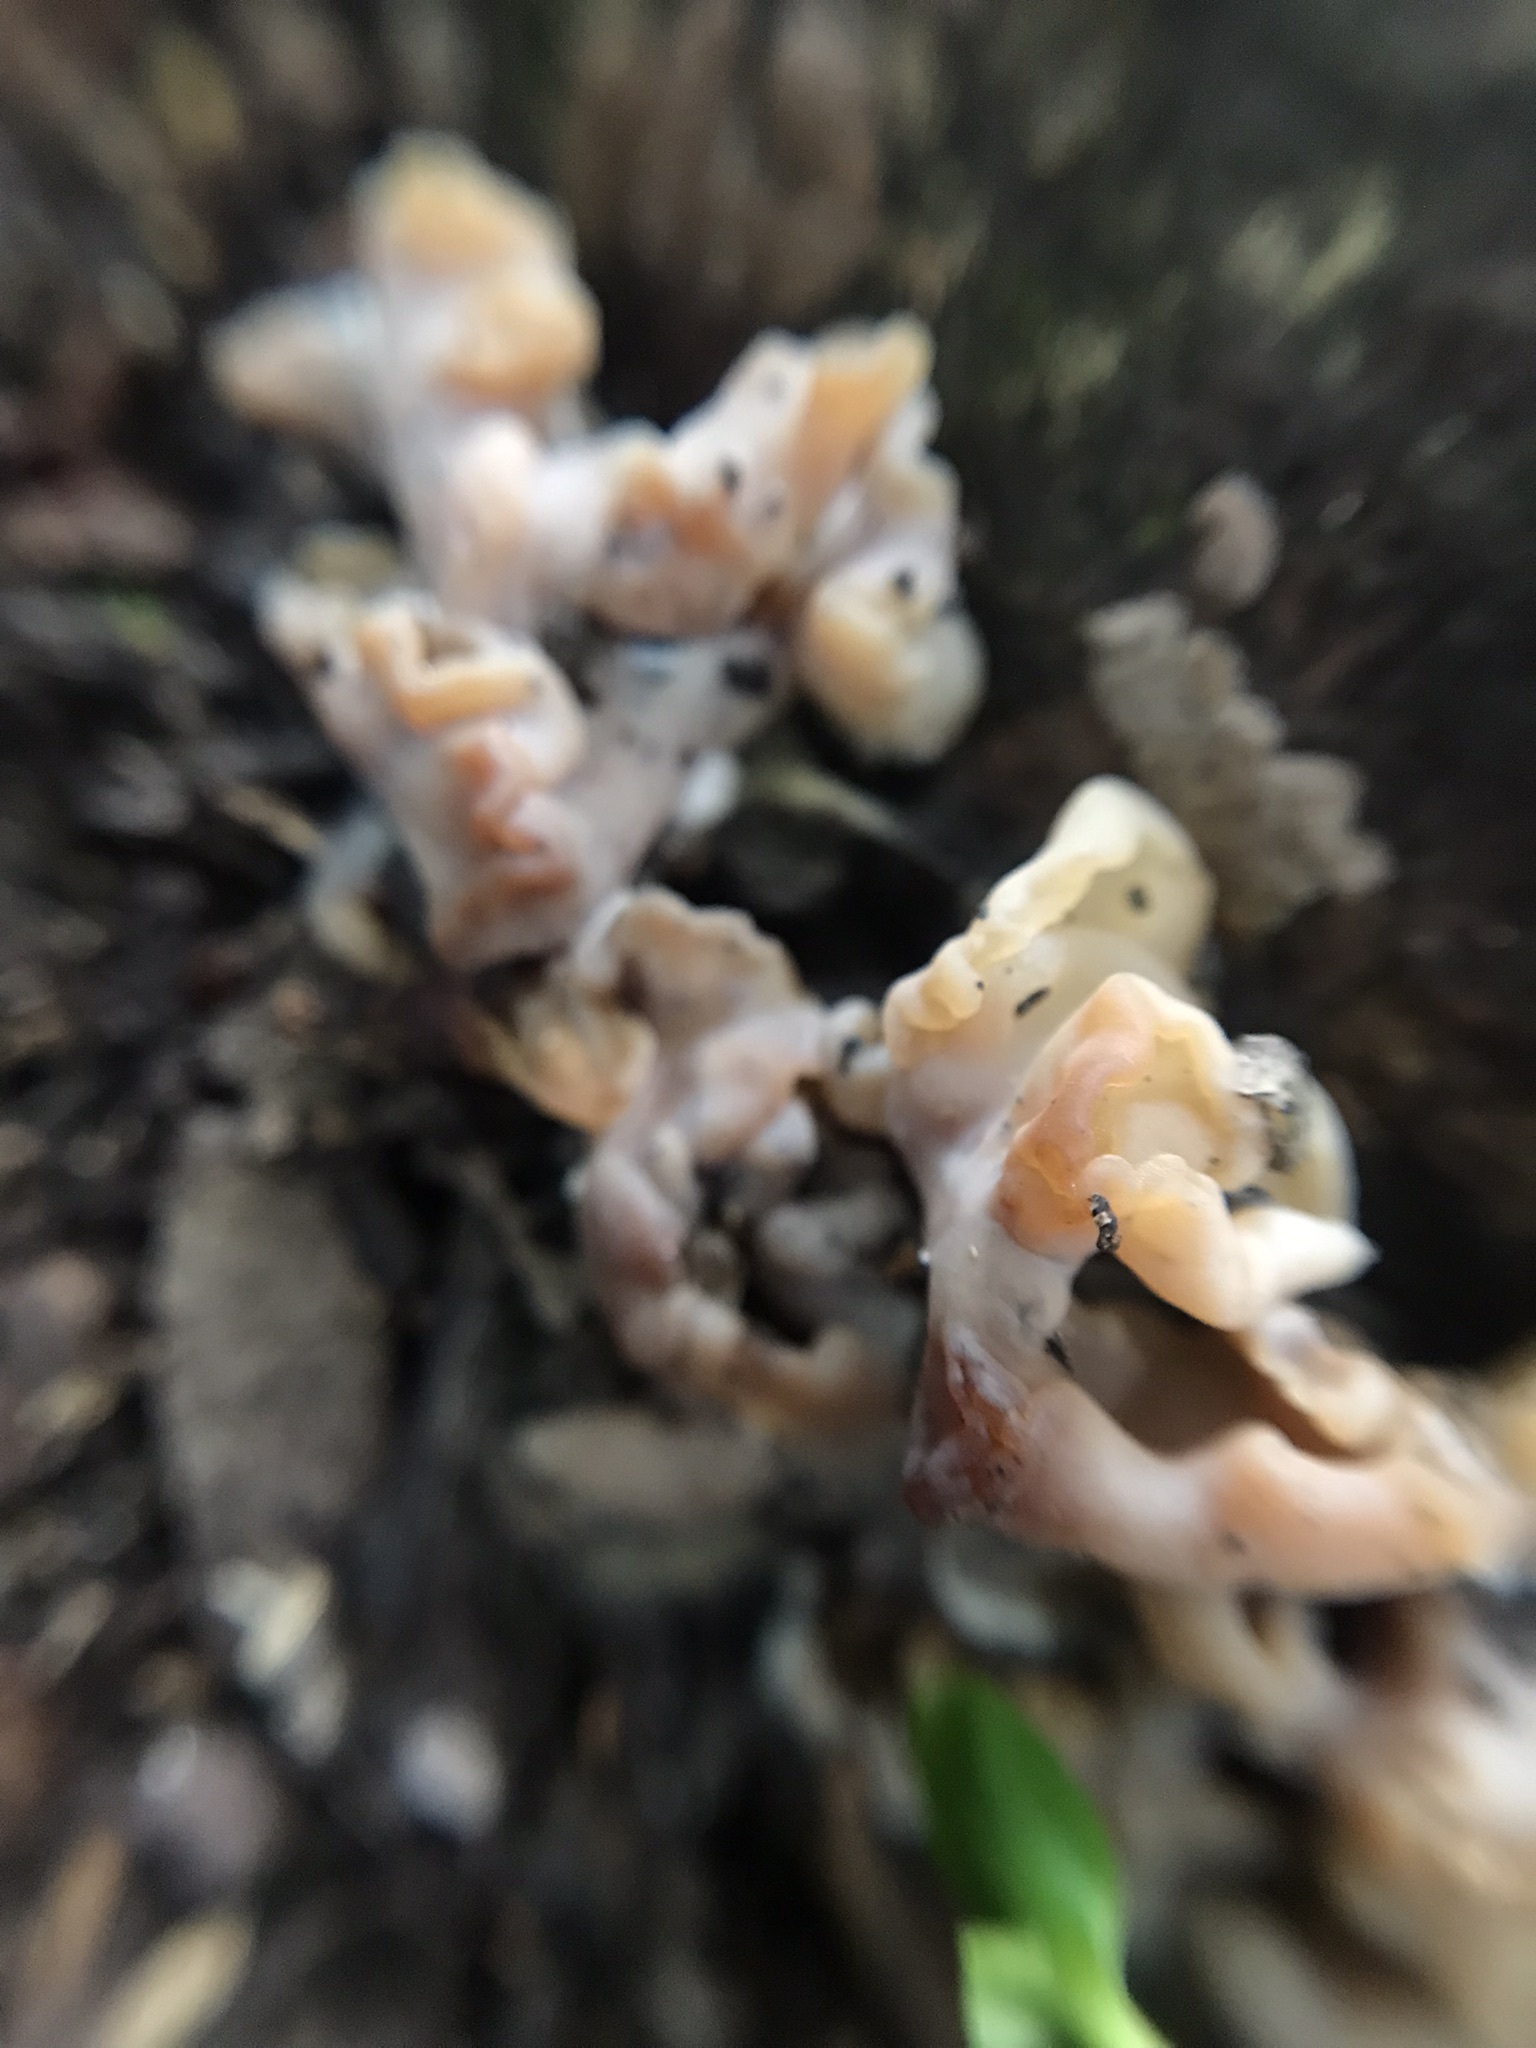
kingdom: Fungi
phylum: Basidiomycota
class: Agaricomycetes
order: Auriculariales
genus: Ductifera
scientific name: Ductifera pululahuana
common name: White jelly fungus
